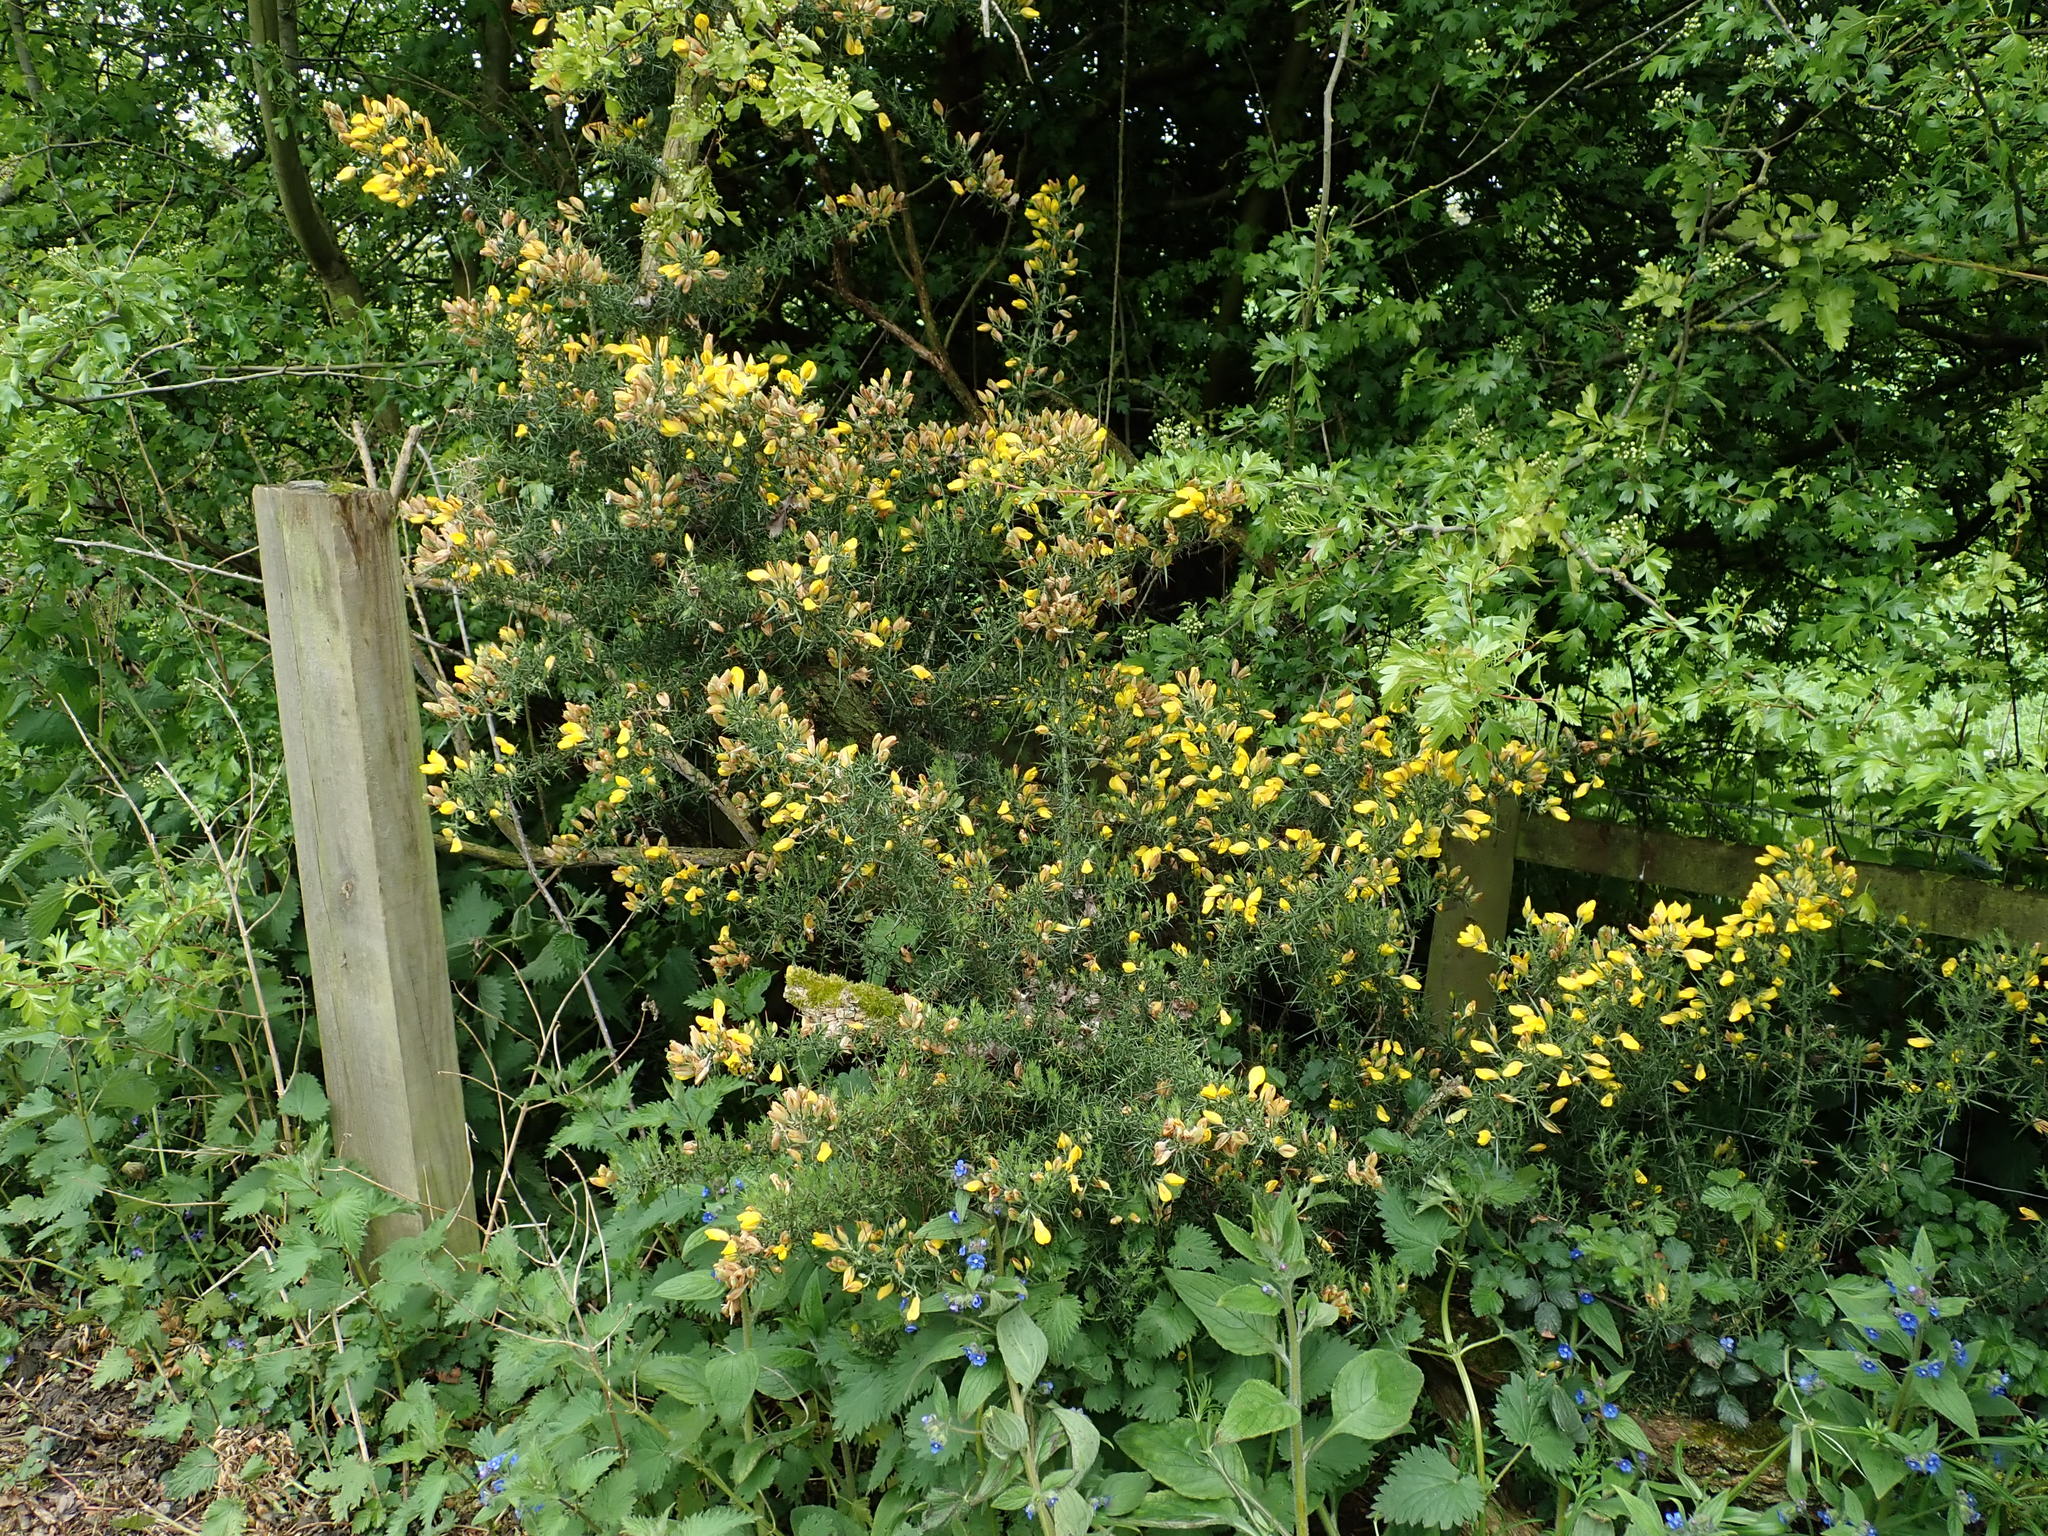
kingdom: Plantae
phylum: Tracheophyta
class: Magnoliopsida
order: Fabales
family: Fabaceae
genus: Ulex
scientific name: Ulex europaeus
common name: Common gorse
